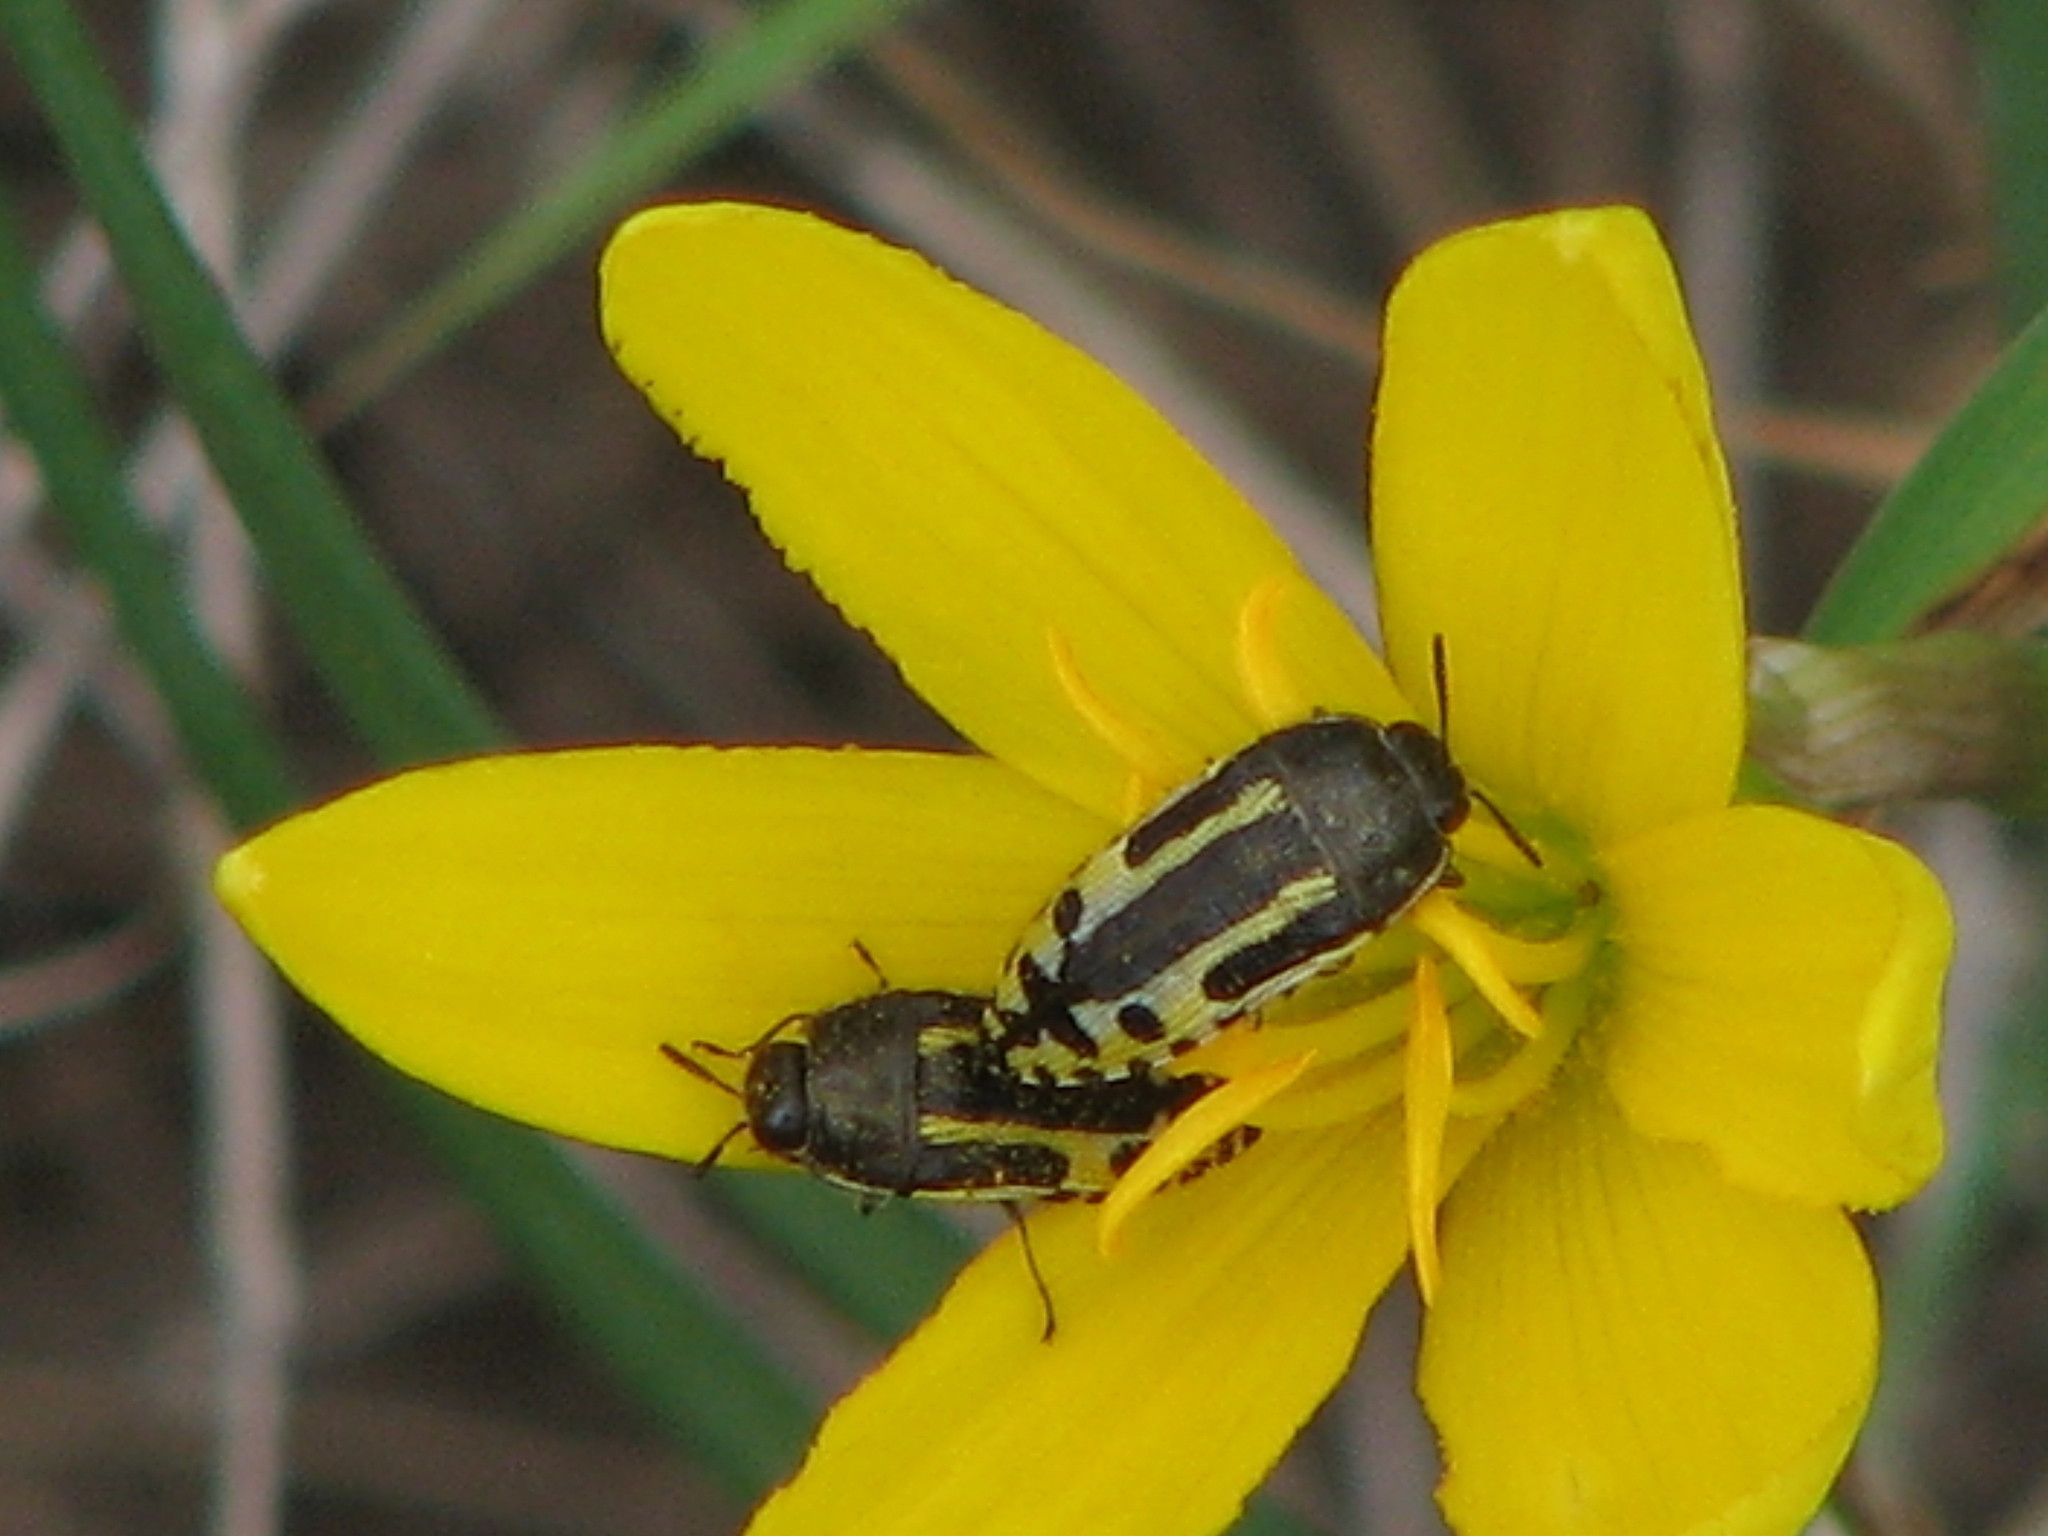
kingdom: Animalia
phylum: Arthropoda
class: Insecta
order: Coleoptera
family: Buprestidae
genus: Acmaeodera
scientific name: Acmaeodera scalaris
